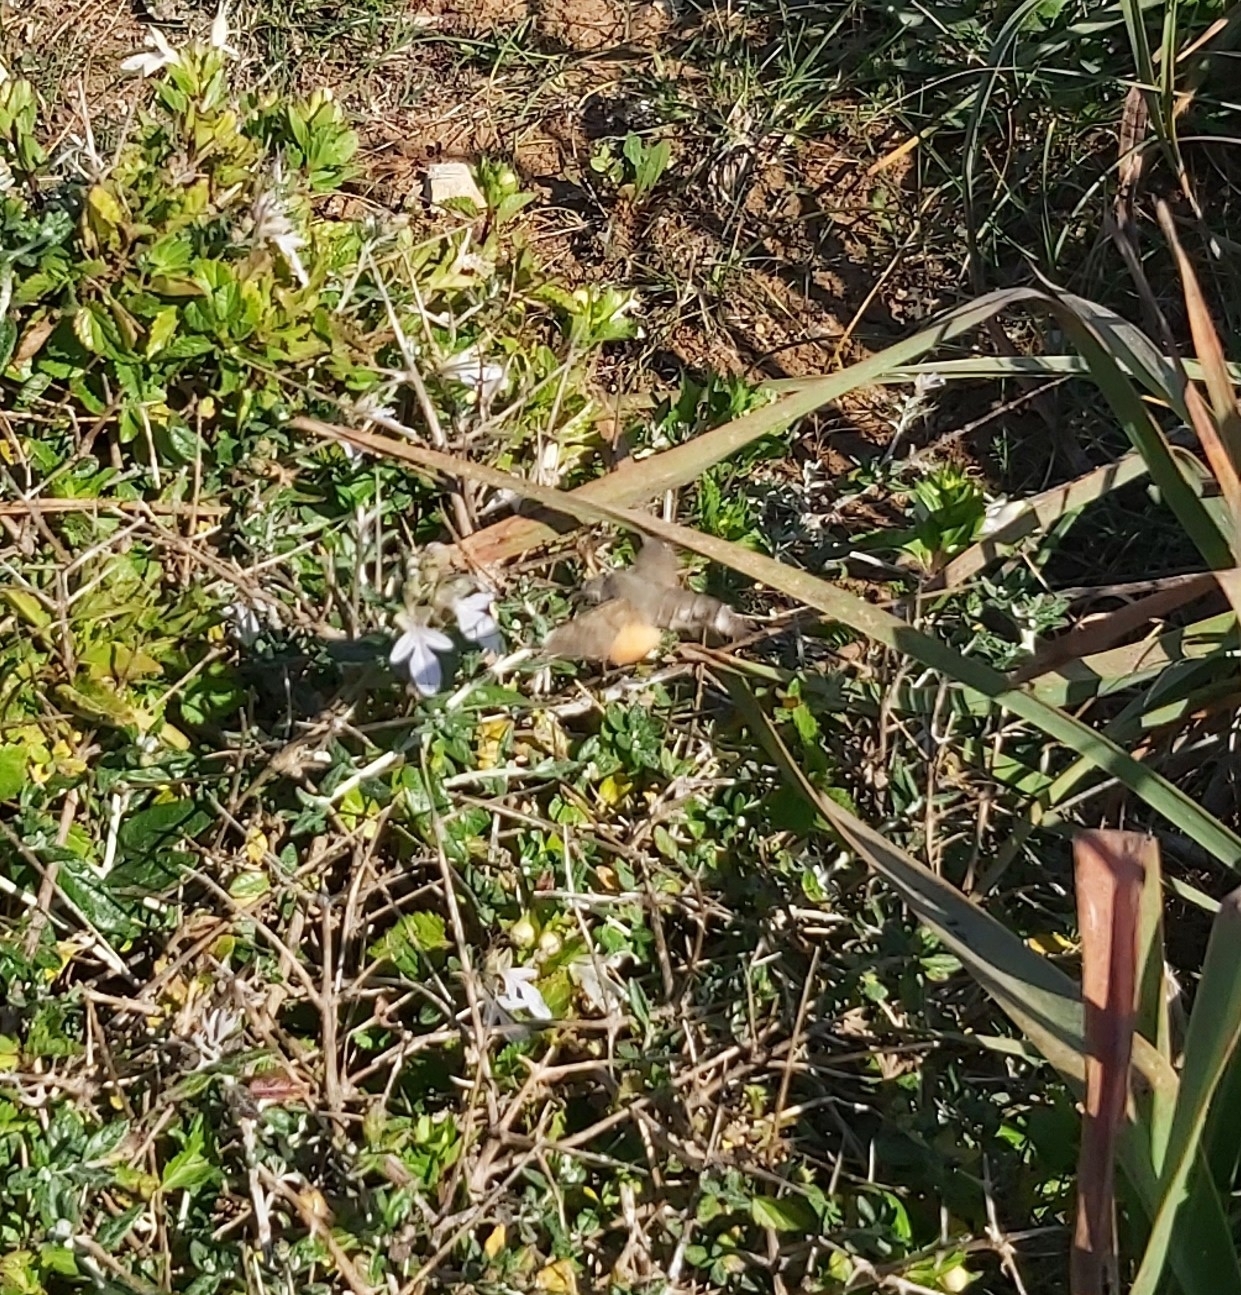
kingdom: Animalia
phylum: Arthropoda
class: Insecta
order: Lepidoptera
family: Sphingidae
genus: Macroglossum
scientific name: Macroglossum stellatarum
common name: Humming-bird hawk-moth
